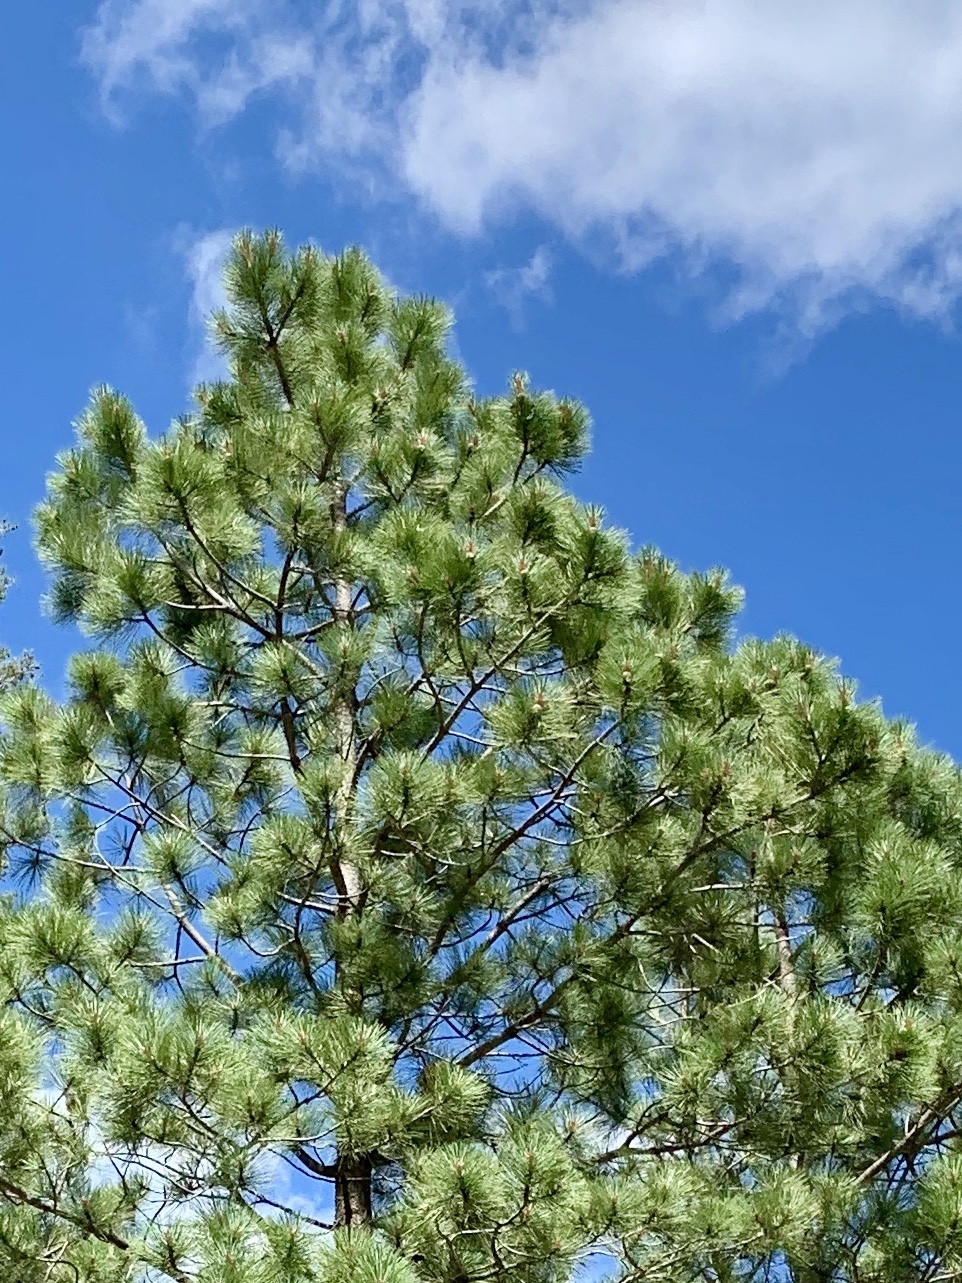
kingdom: Plantae
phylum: Tracheophyta
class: Pinopsida
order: Pinales
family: Pinaceae
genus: Pinus
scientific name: Pinus ponderosa
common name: Western yellow-pine
